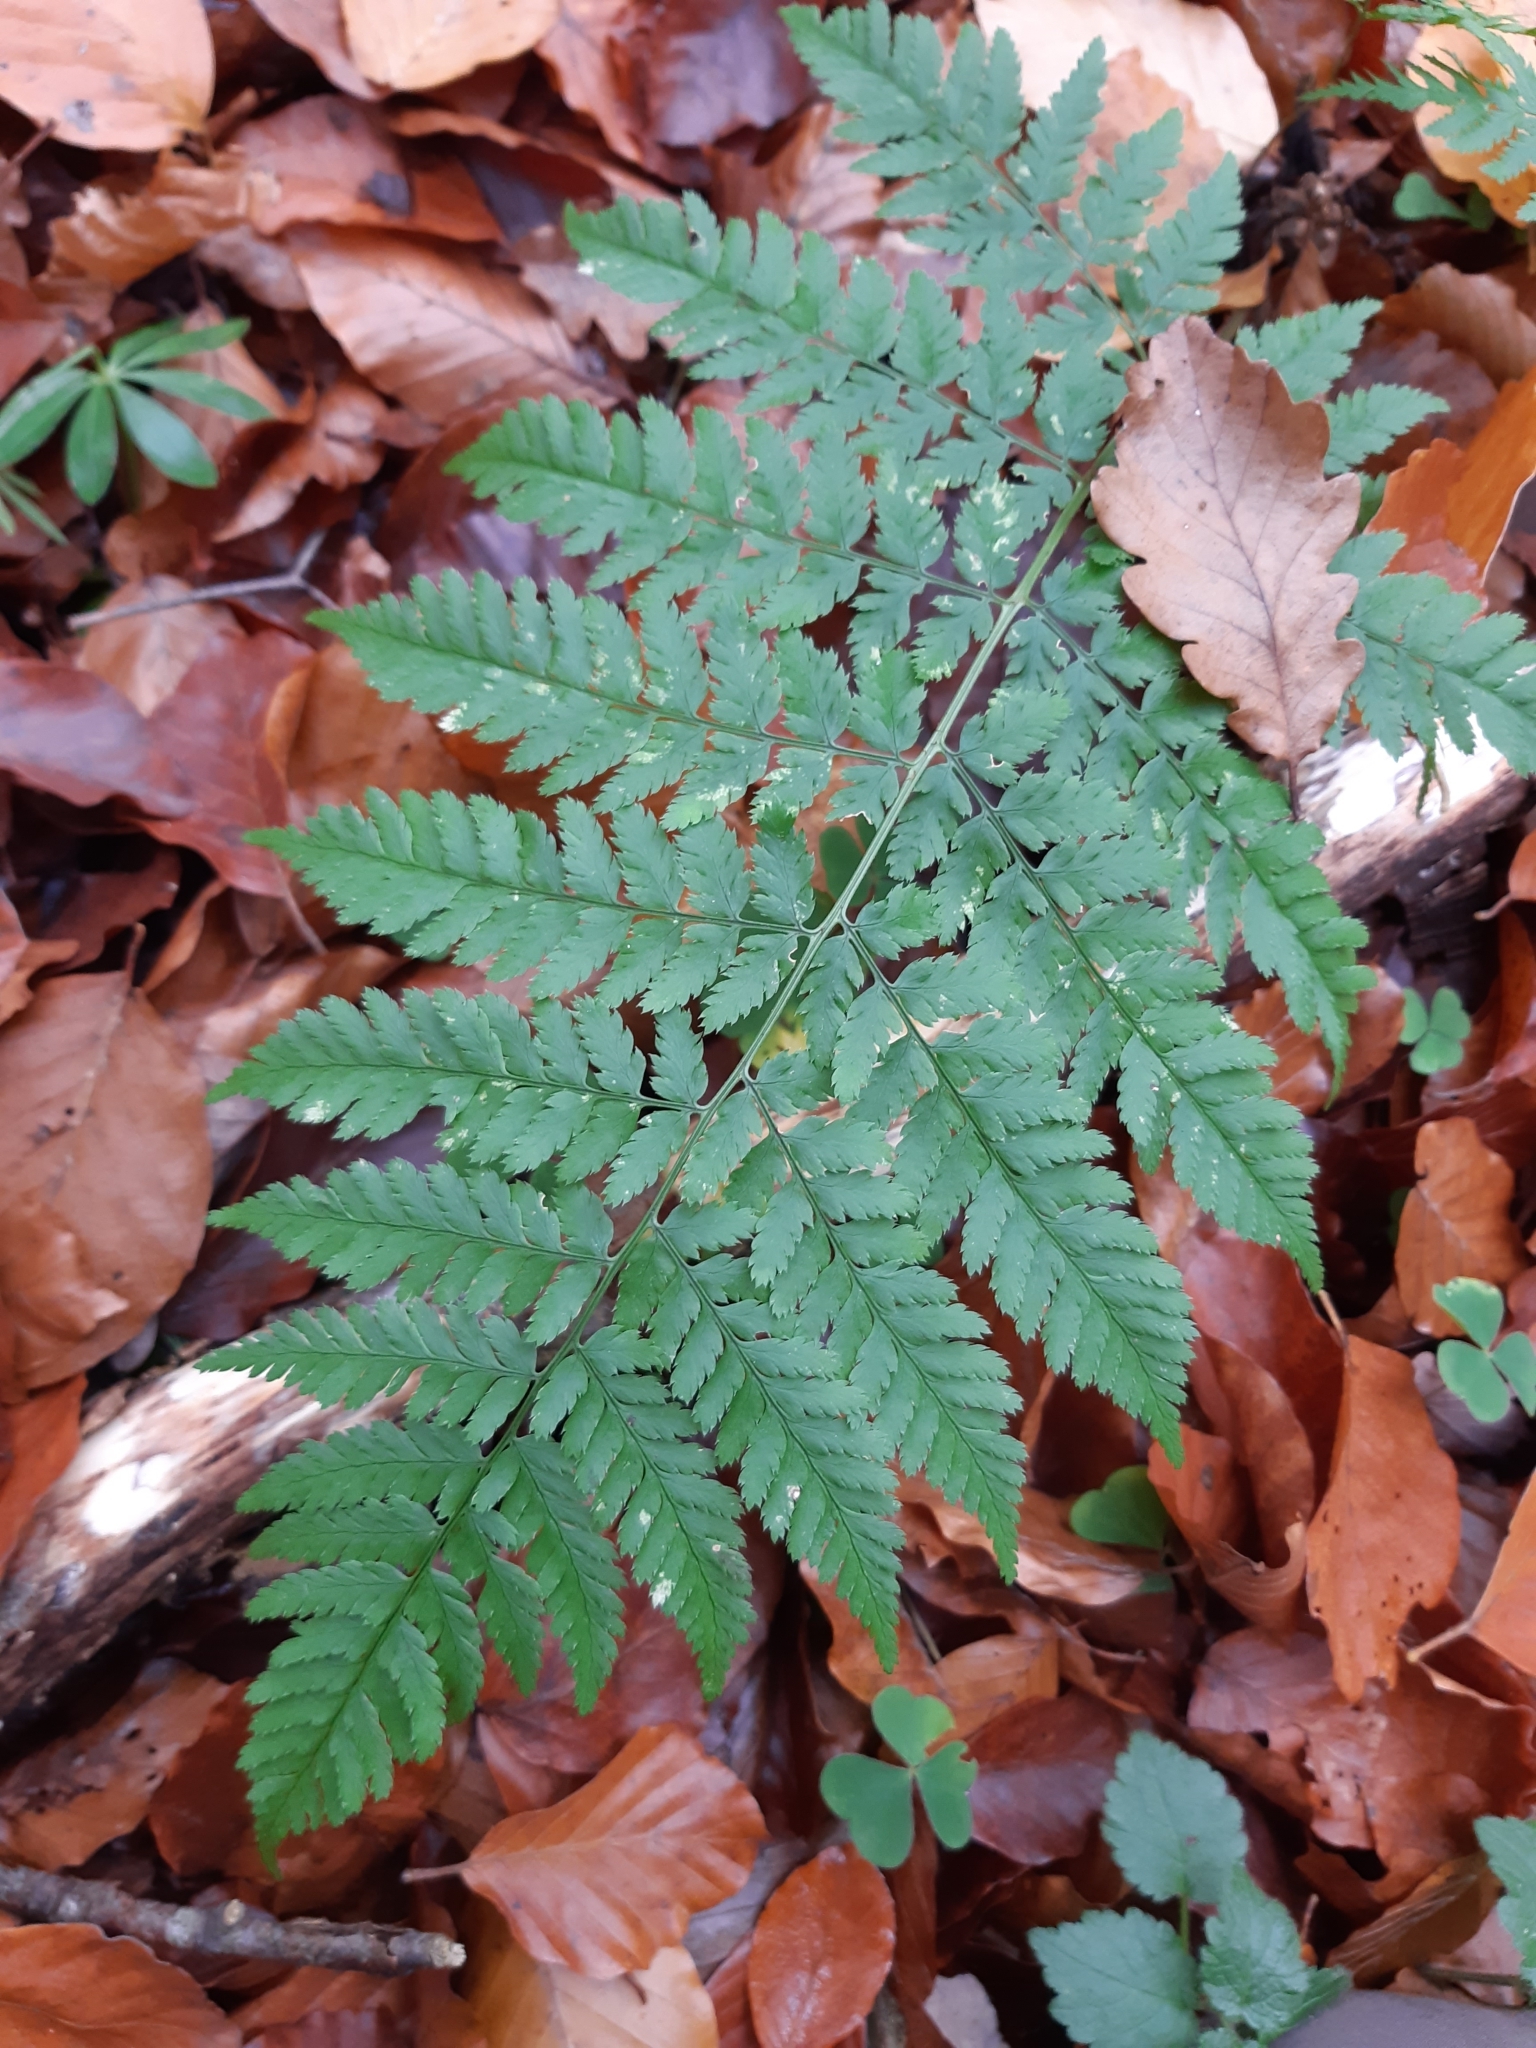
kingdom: Plantae
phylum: Tracheophyta
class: Polypodiopsida
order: Polypodiales
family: Dryopteridaceae
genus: Dryopteris
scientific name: Dryopteris carthusiana
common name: Narrow buckler-fern
